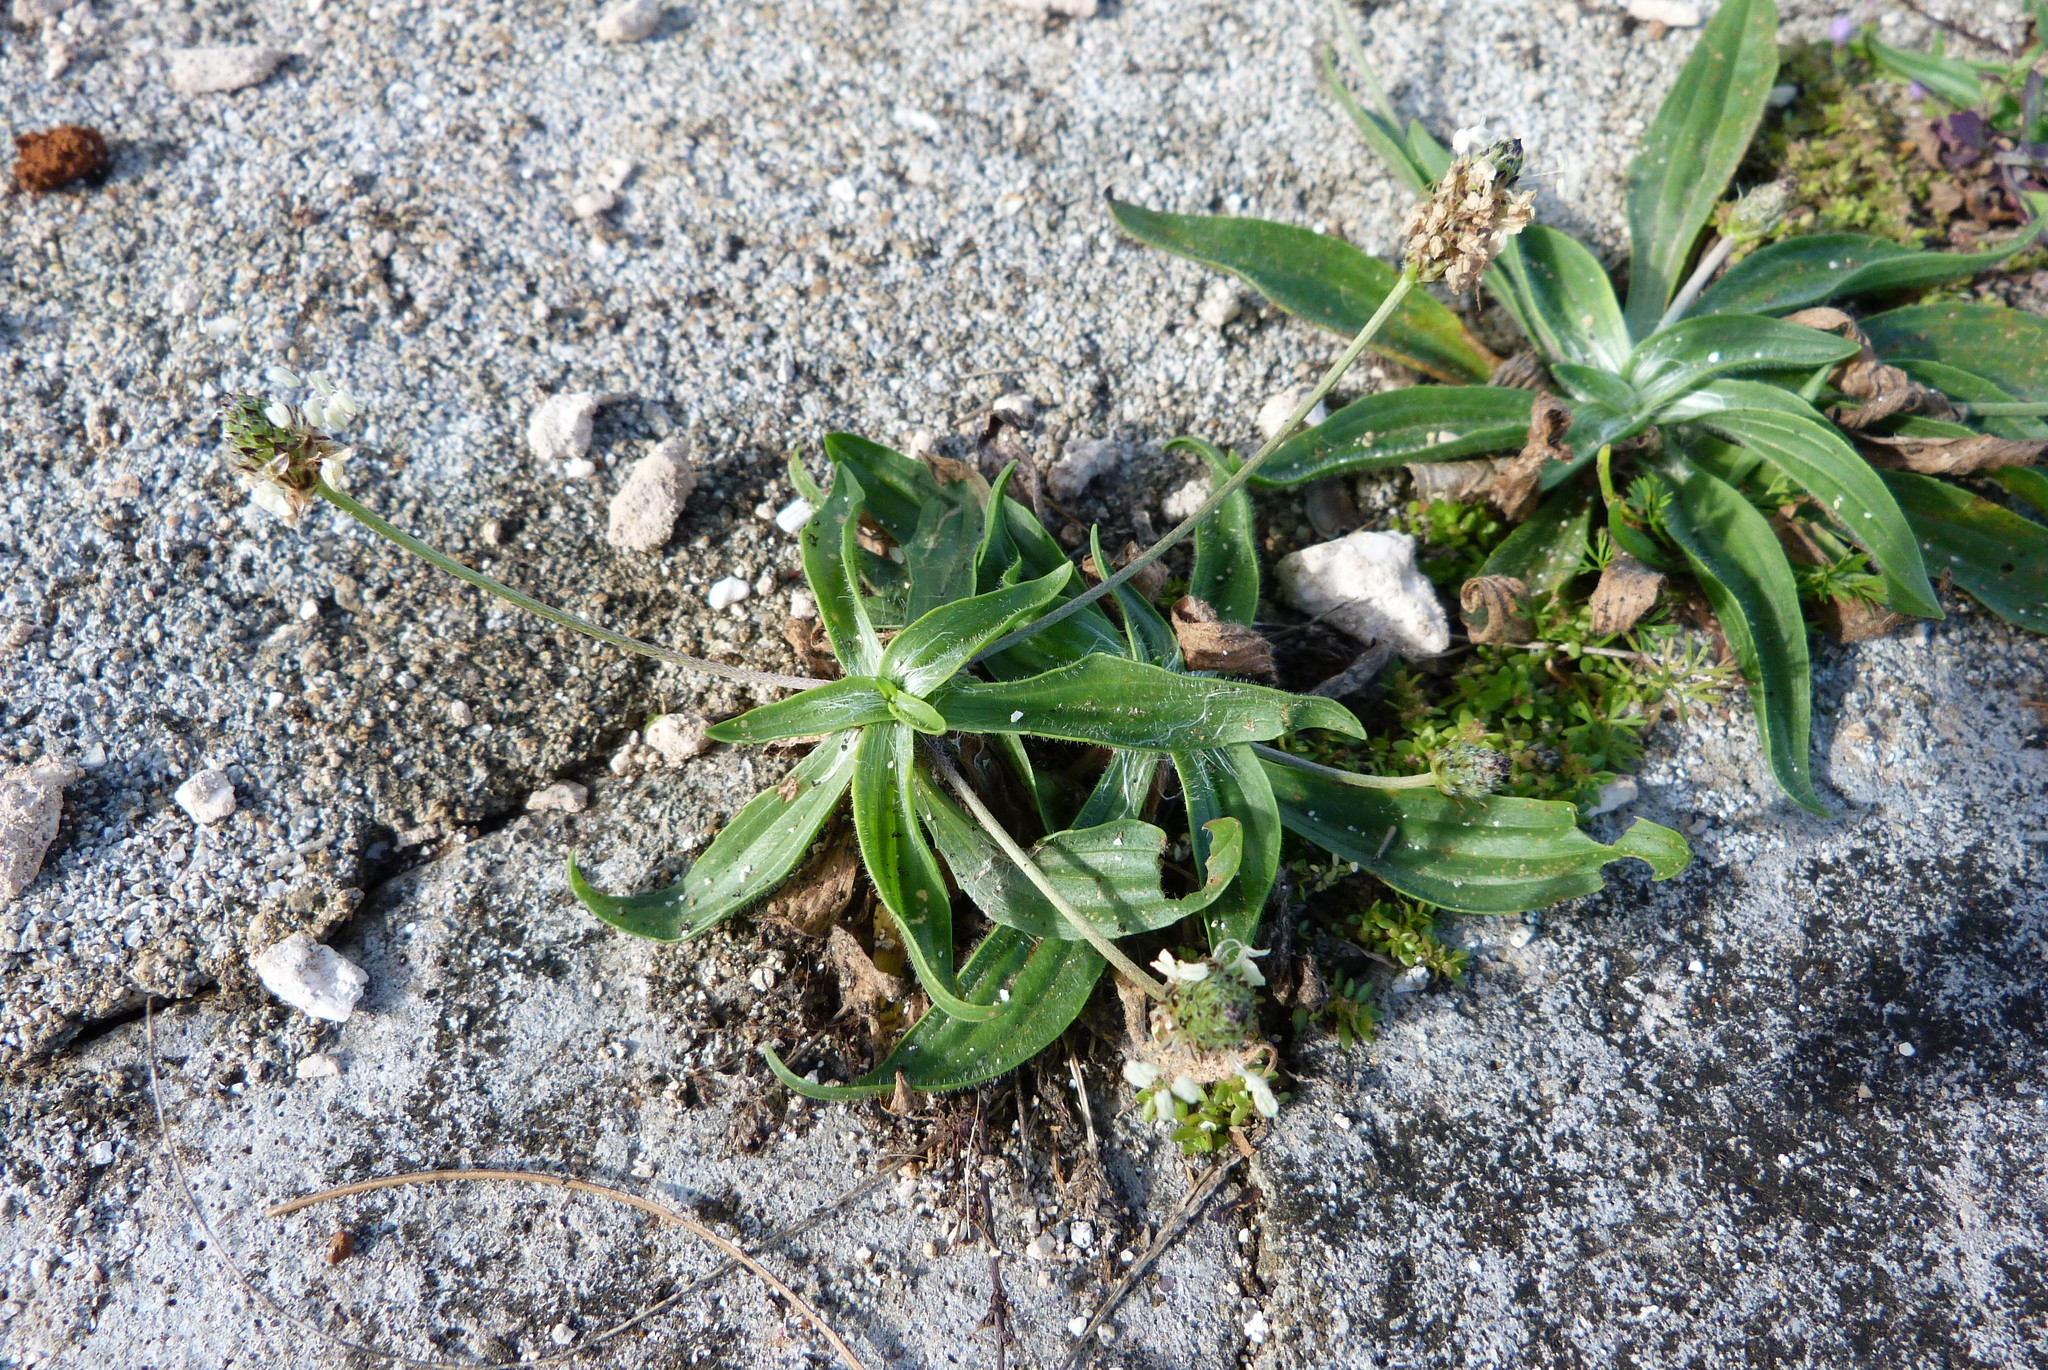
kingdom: Plantae
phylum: Tracheophyta
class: Magnoliopsida
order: Lamiales
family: Plantaginaceae
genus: Plantago
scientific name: Plantago lanceolata
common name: Ribwort plantain
